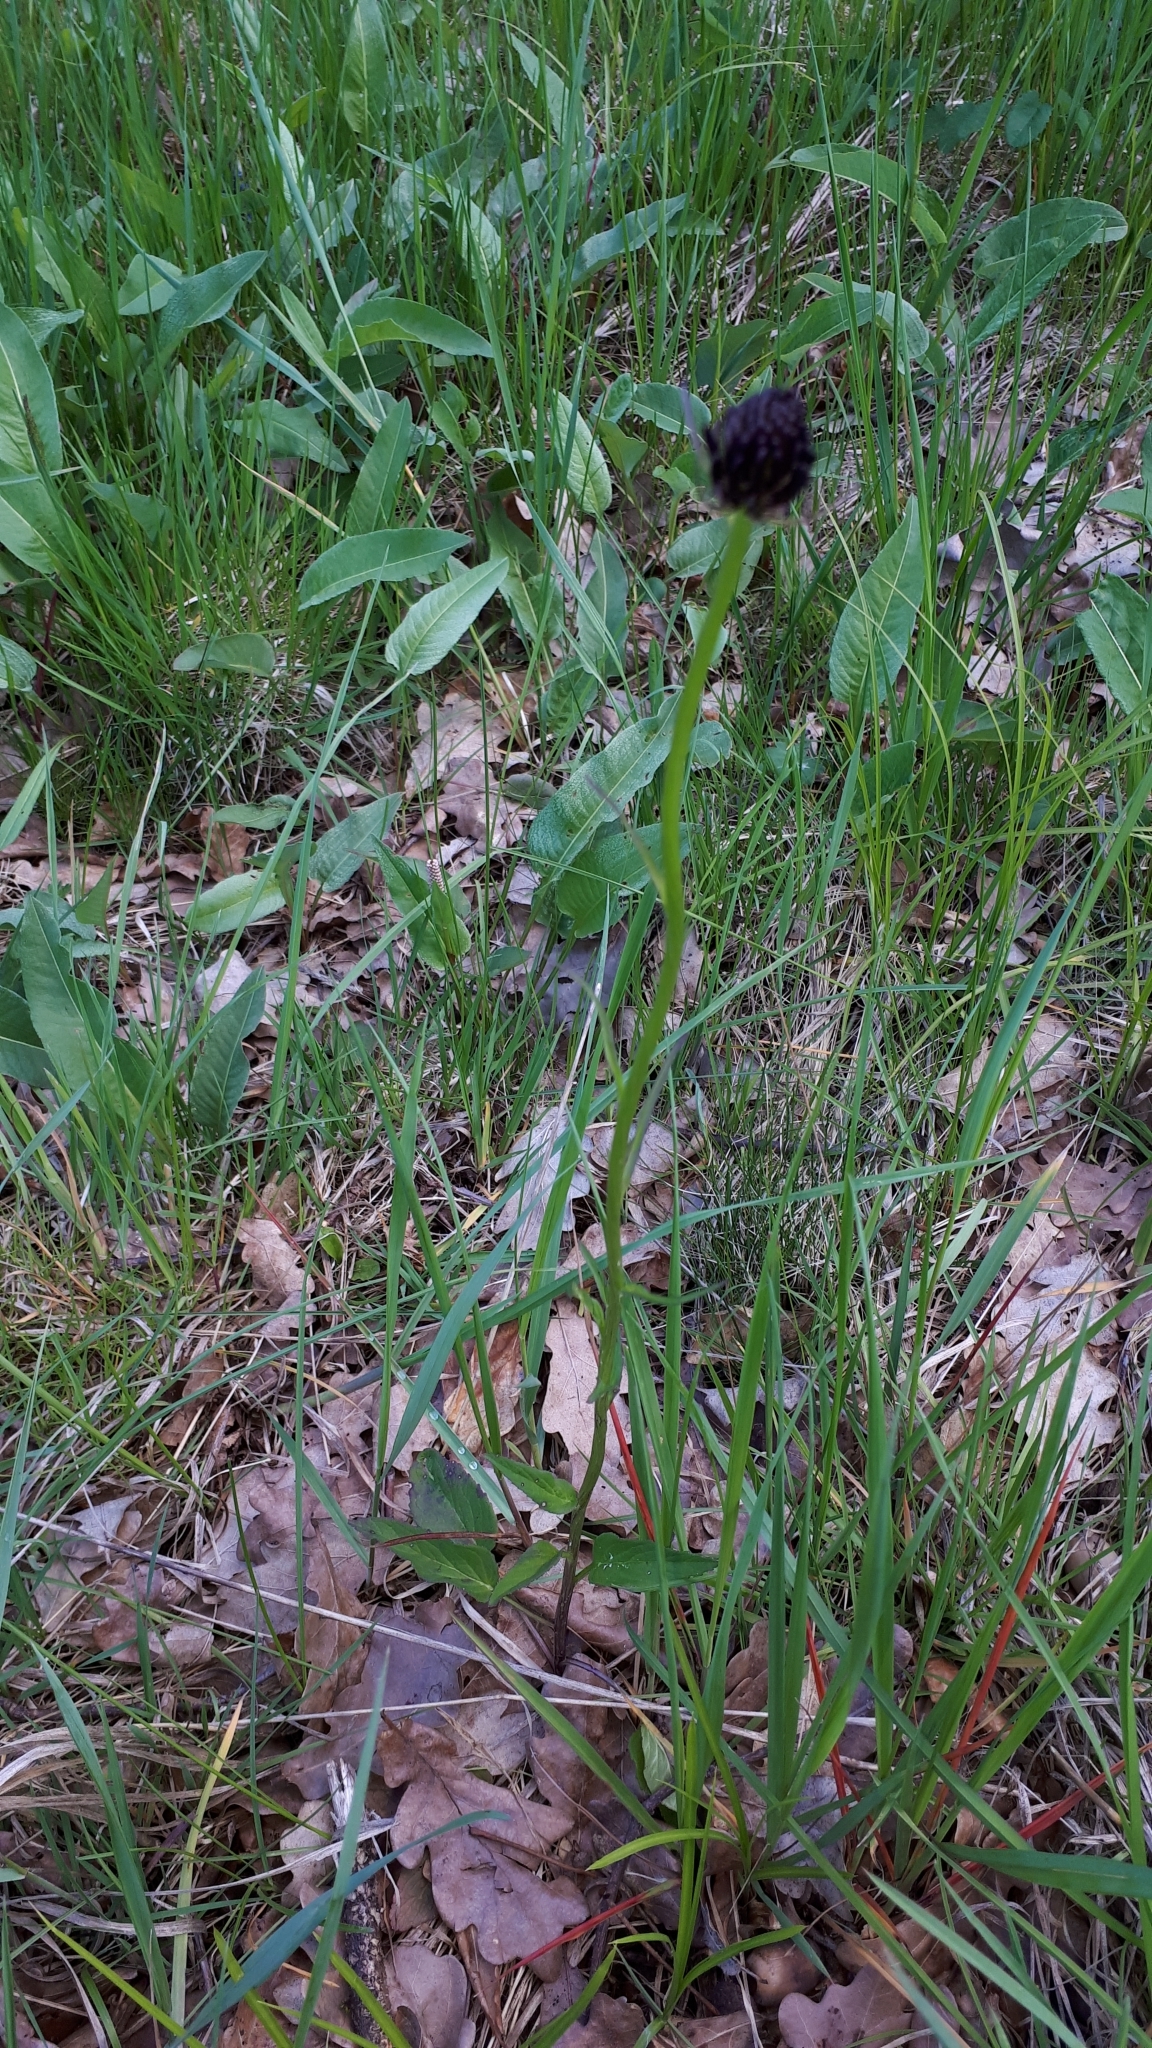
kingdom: Plantae
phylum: Tracheophyta
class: Magnoliopsida
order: Asterales
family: Campanulaceae
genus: Phyteuma
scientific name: Phyteuma nigrum
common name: Black rampion
